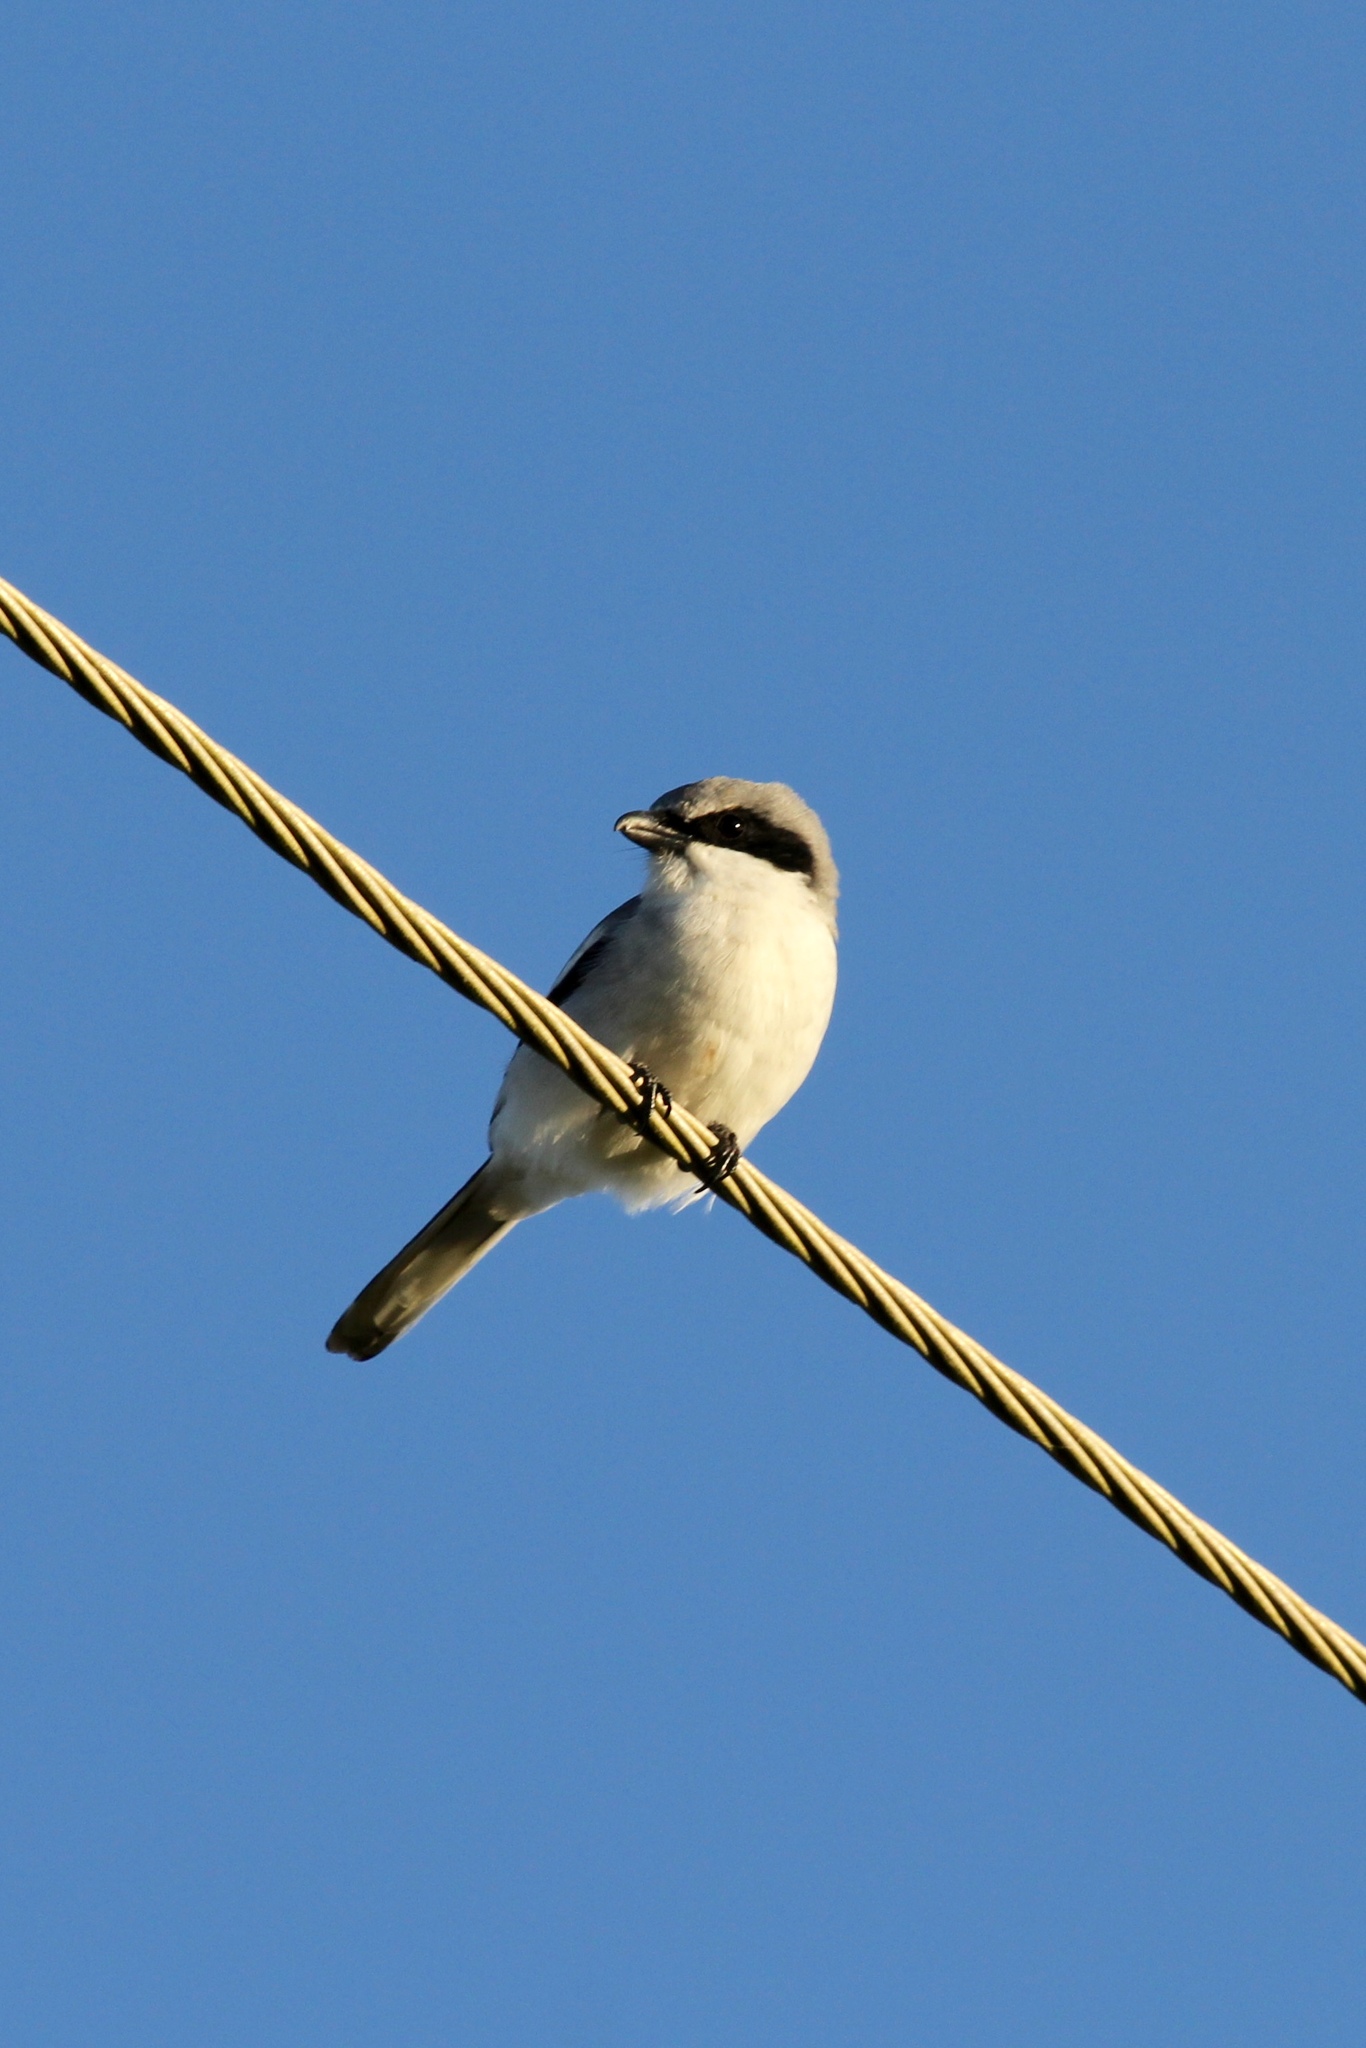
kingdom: Animalia
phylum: Chordata
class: Aves
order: Passeriformes
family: Laniidae
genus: Lanius
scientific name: Lanius ludovicianus
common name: Loggerhead shrike
